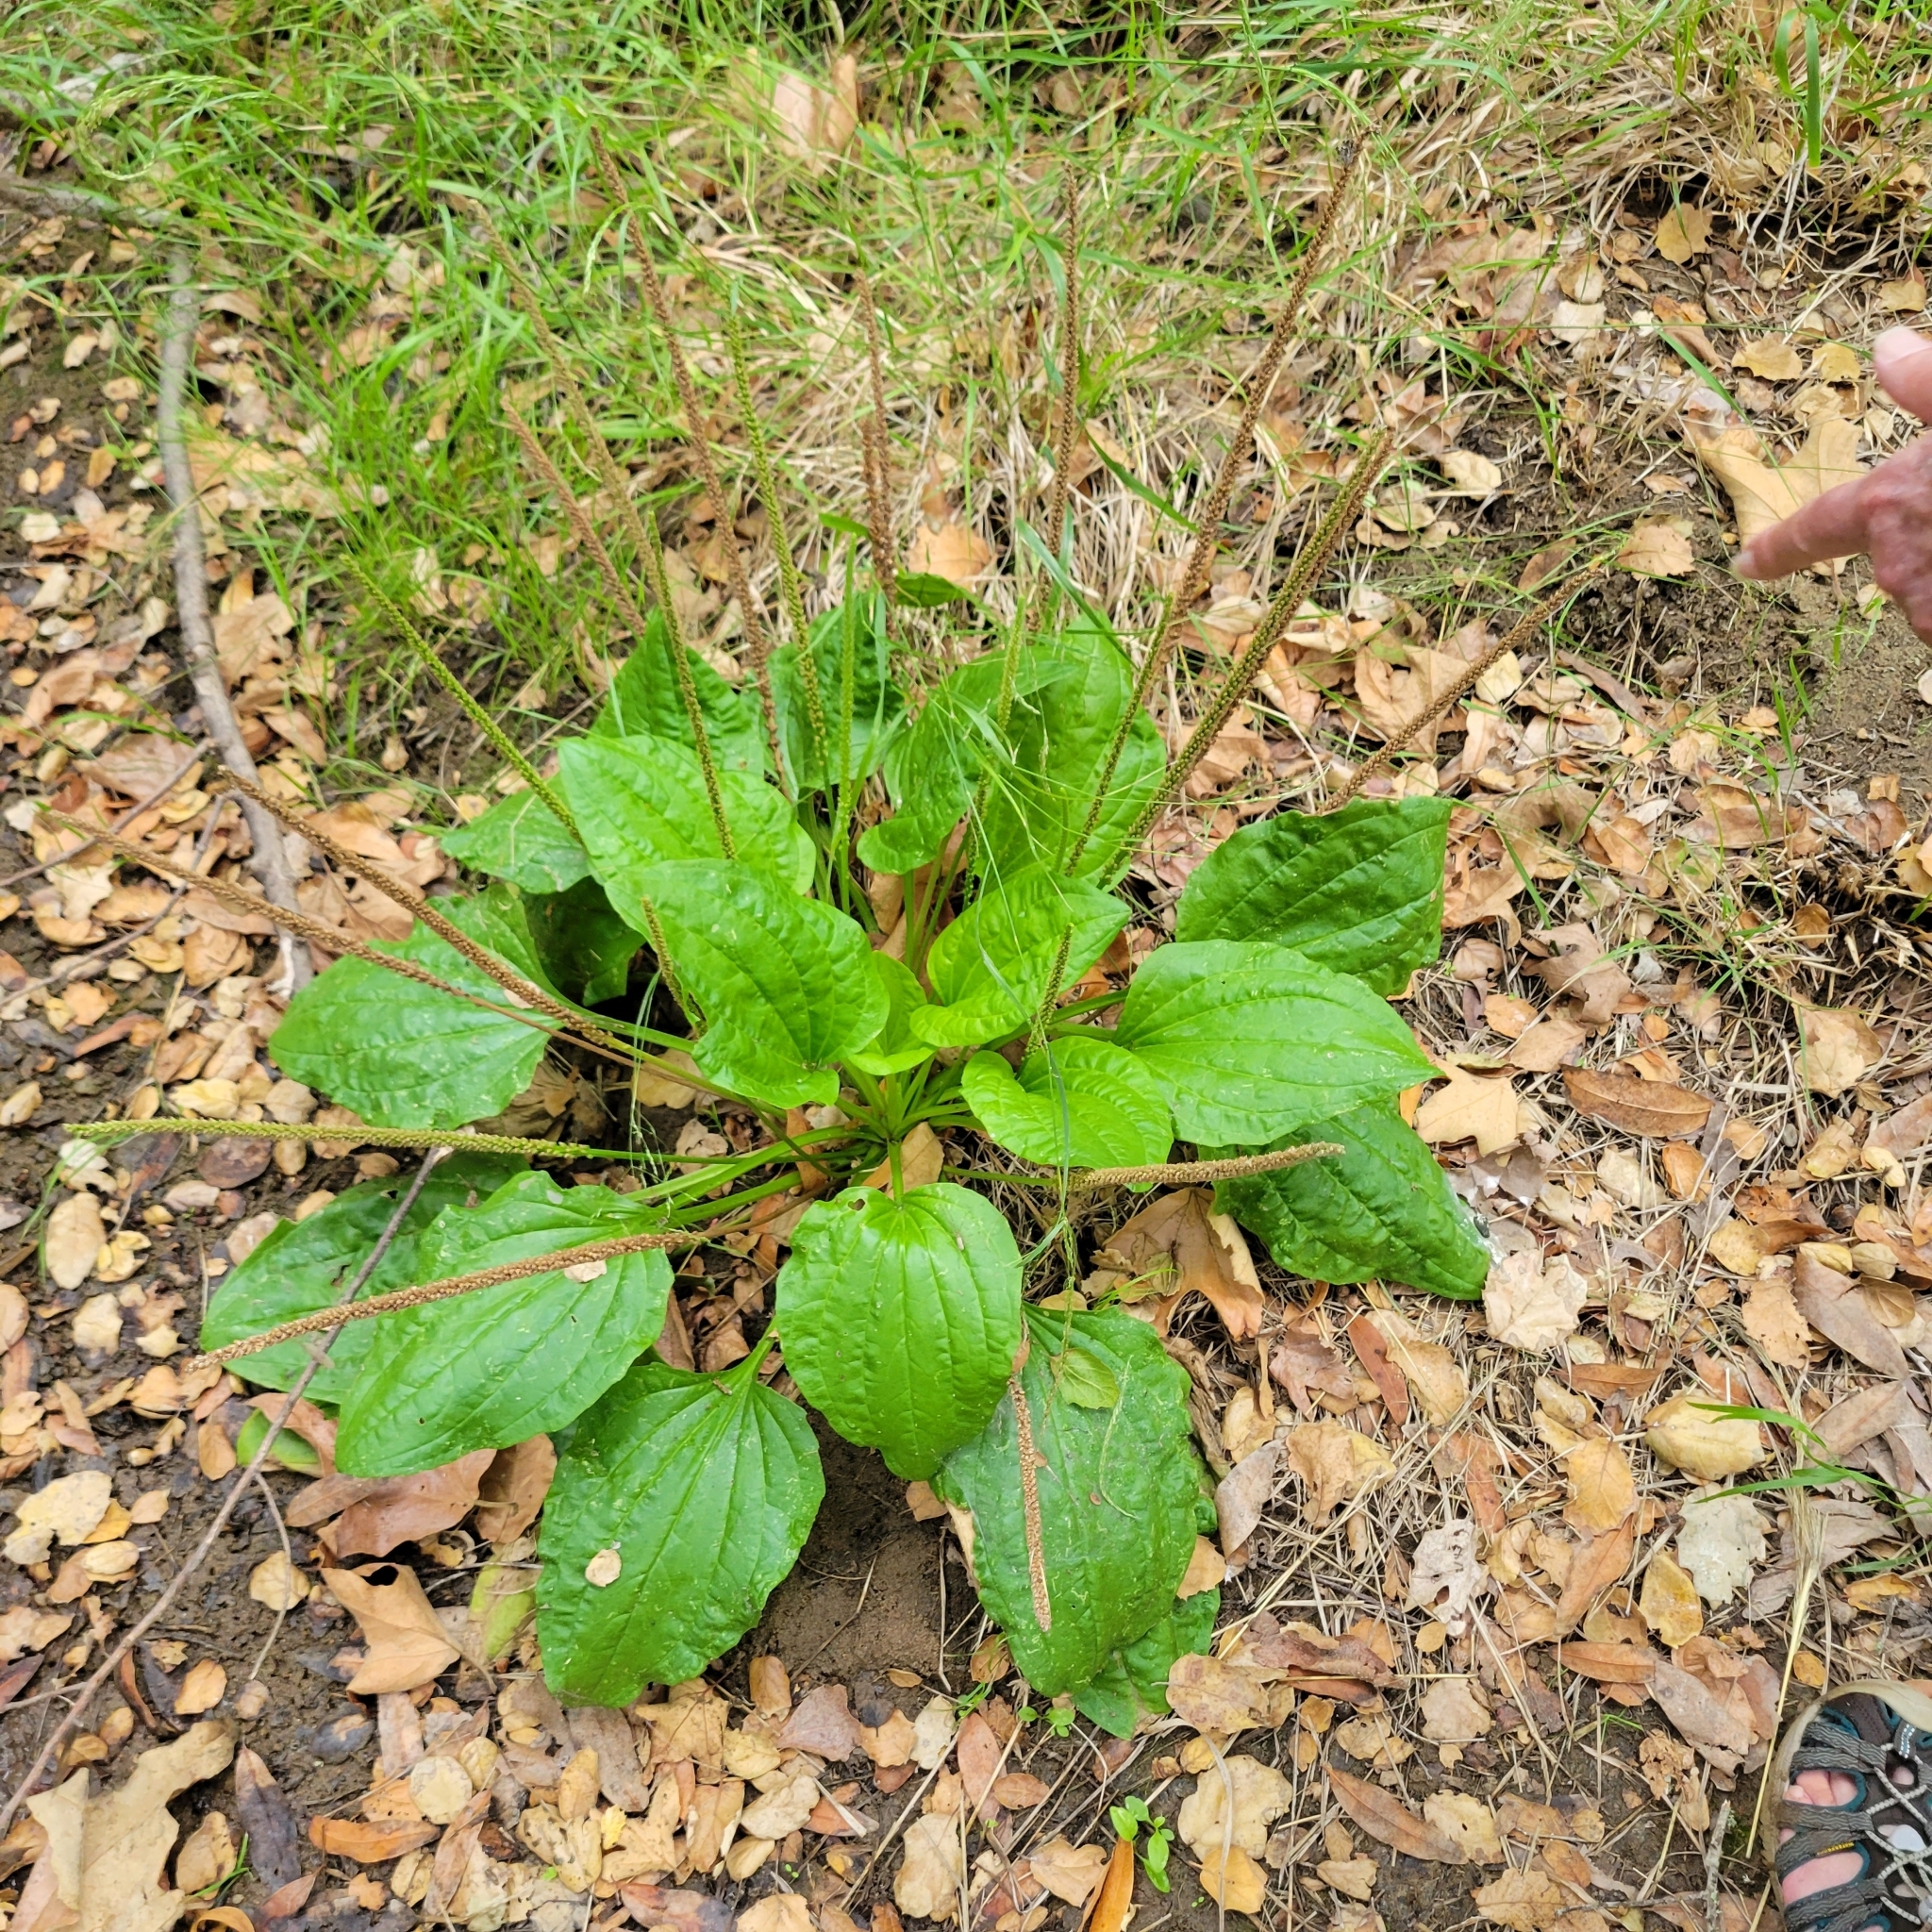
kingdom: Plantae
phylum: Tracheophyta
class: Magnoliopsida
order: Lamiales
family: Plantaginaceae
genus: Plantago
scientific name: Plantago major
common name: Common plantain
